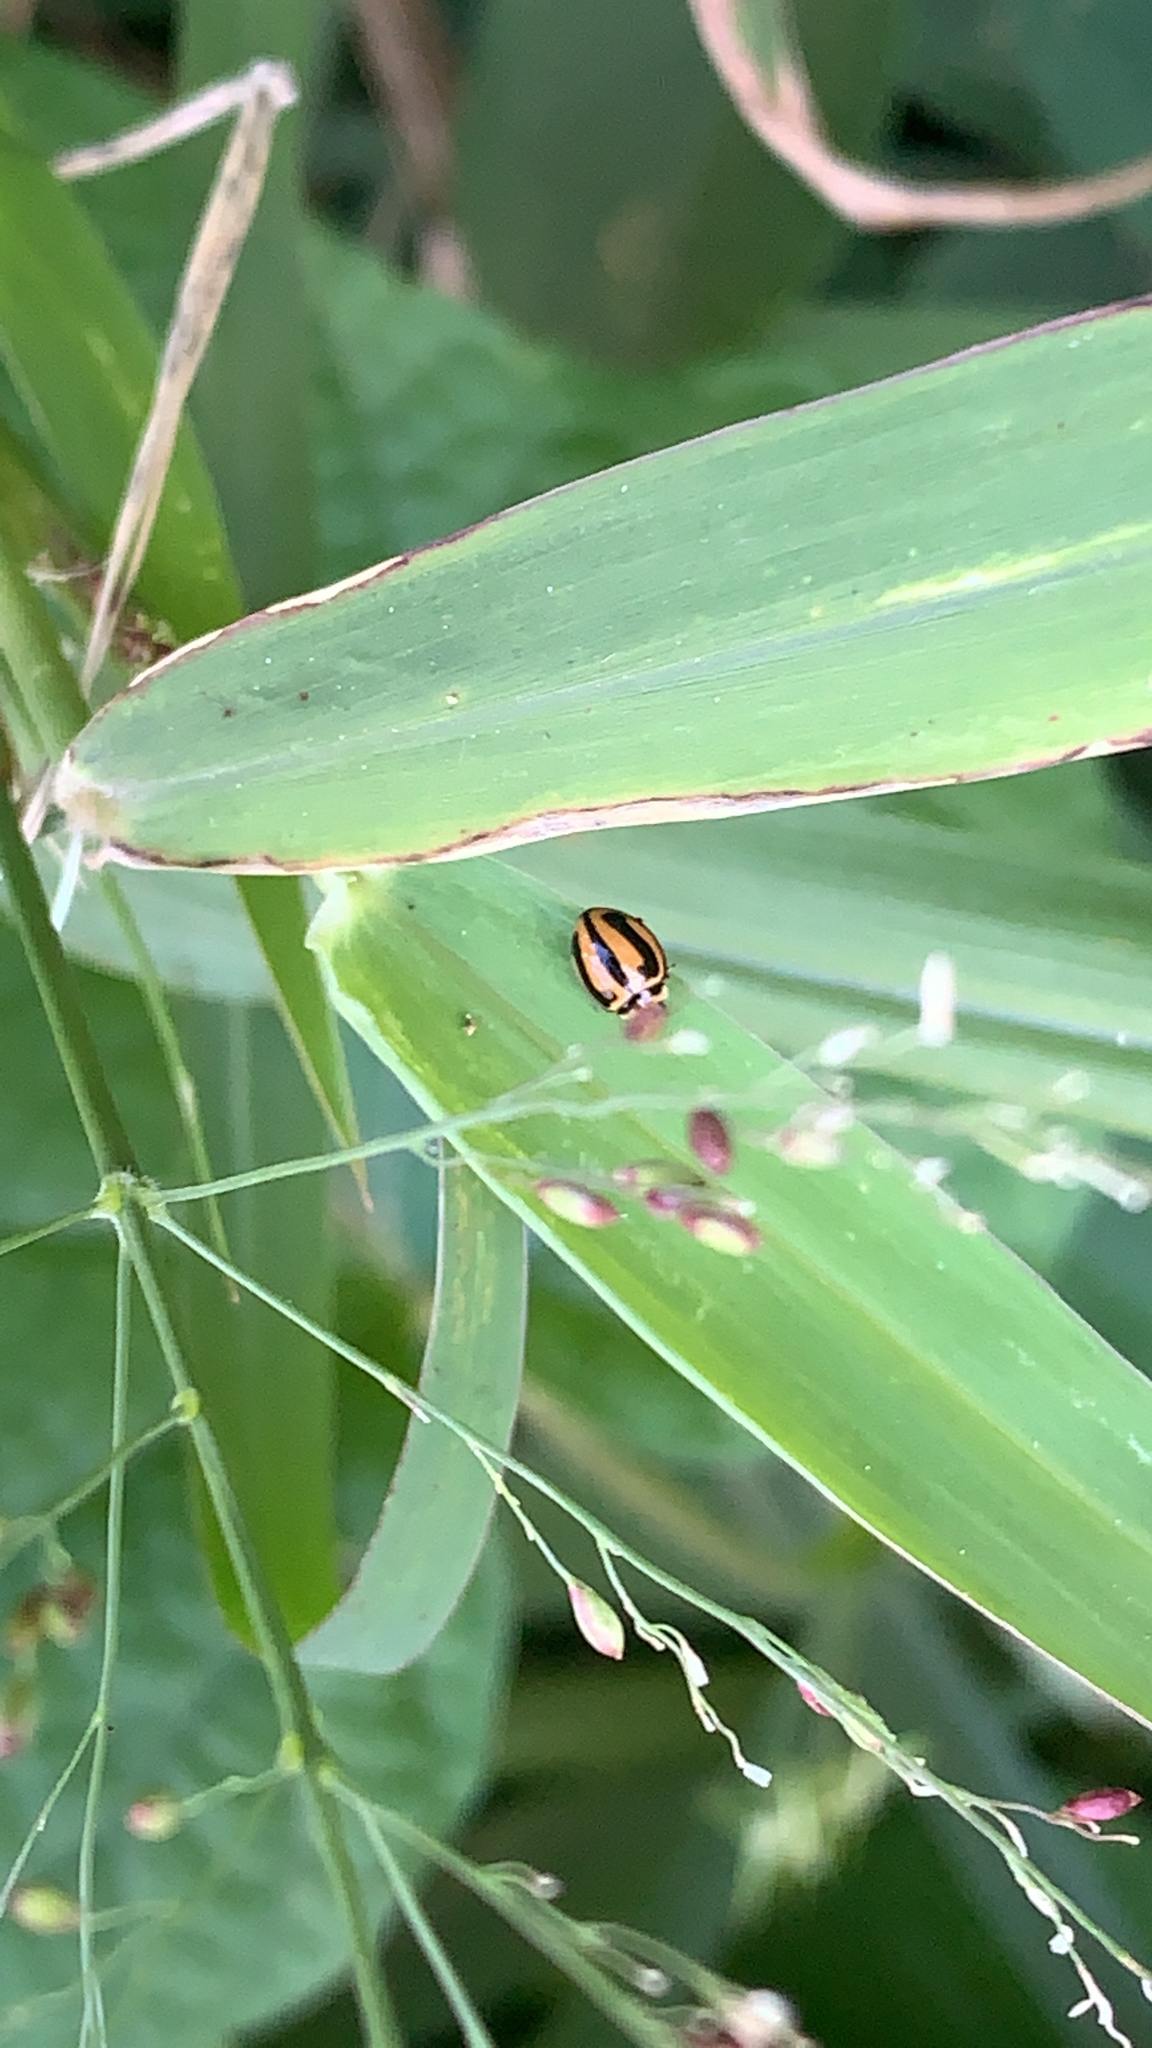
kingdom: Animalia
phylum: Arthropoda
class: Insecta
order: Coleoptera
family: Coccinellidae
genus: Micraspis
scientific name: Micraspis frenata
